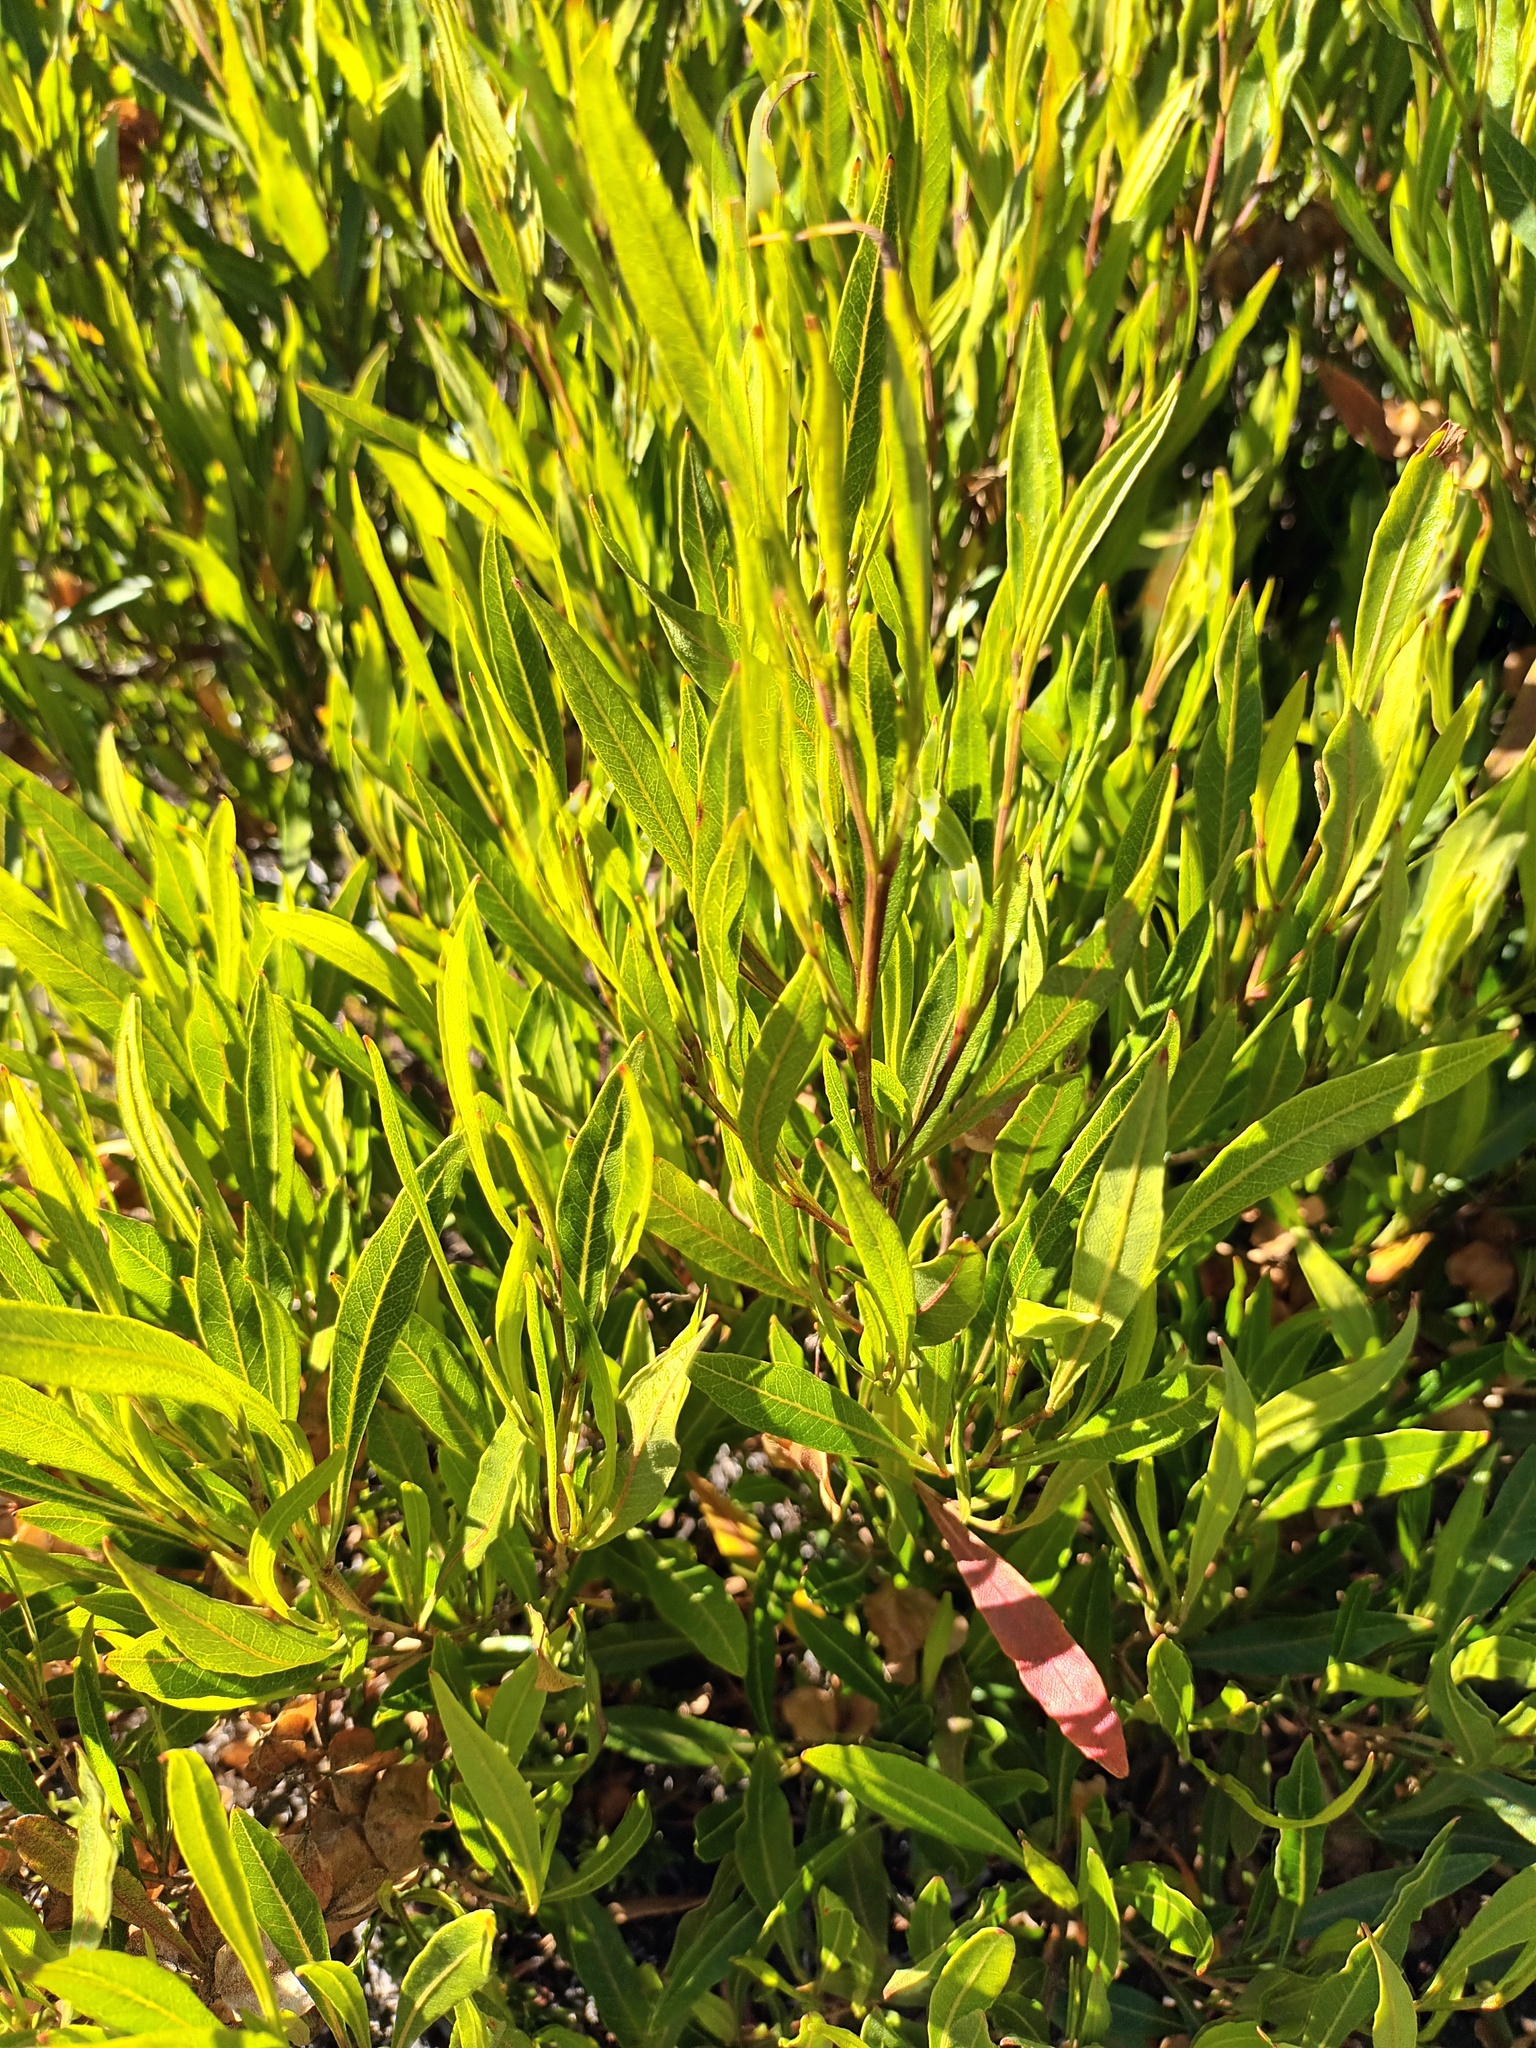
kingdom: Plantae
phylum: Tracheophyta
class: Magnoliopsida
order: Sapindales
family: Sapindaceae
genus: Dodonaea
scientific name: Dodonaea viscosa
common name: Hopbush
